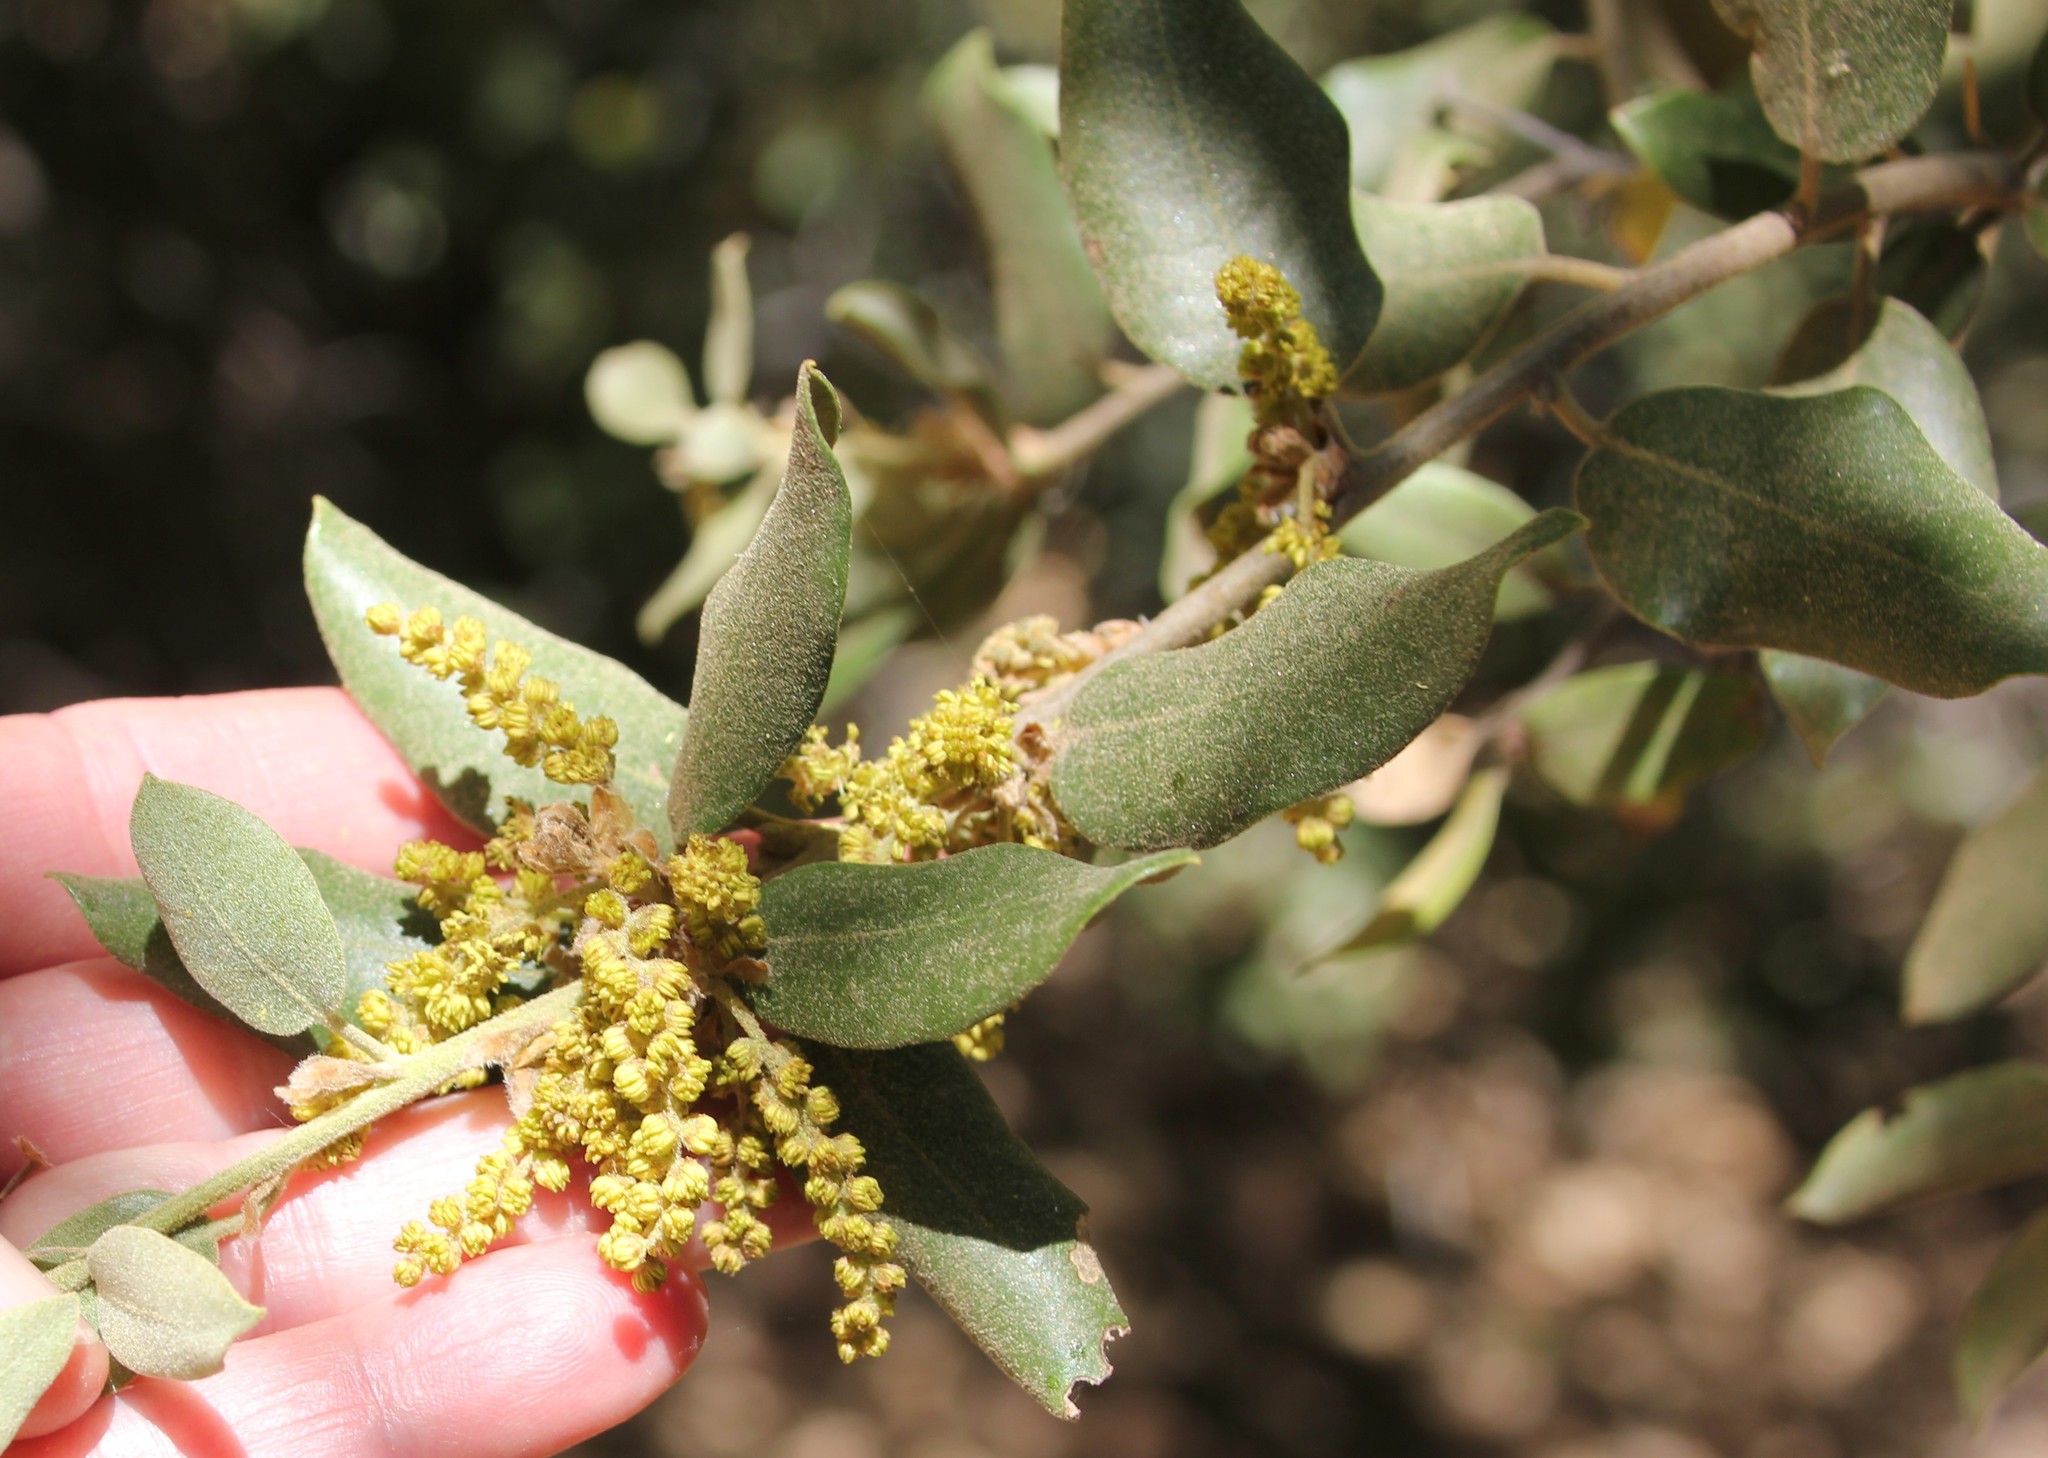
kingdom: Plantae
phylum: Tracheophyta
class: Magnoliopsida
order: Fagales
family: Fagaceae
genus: Quercus
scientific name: Quercus chrysolepis
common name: Canyon live oak
